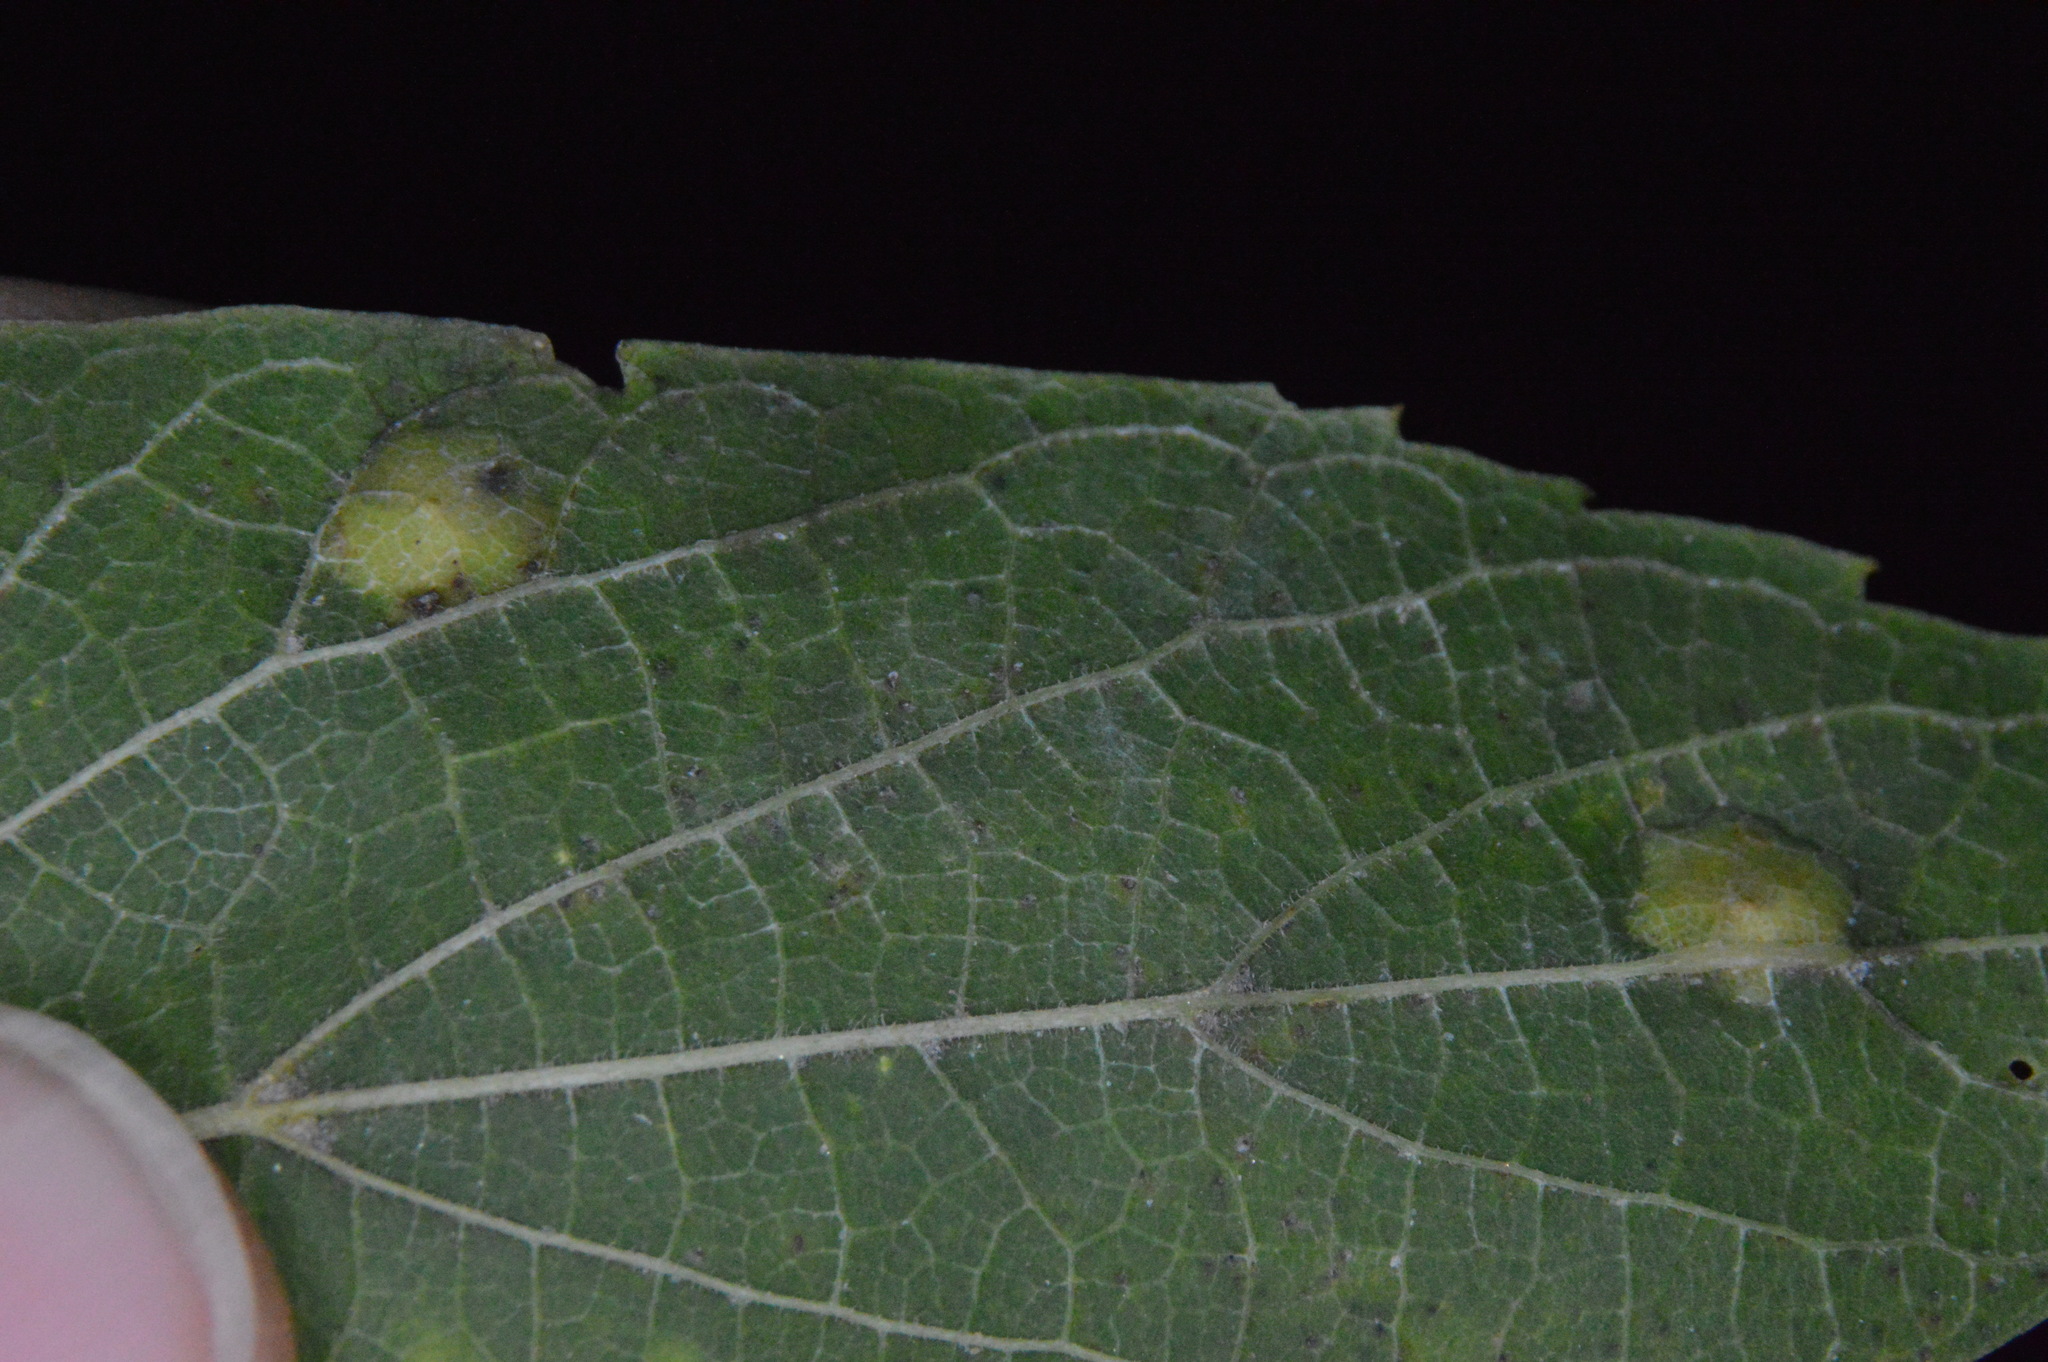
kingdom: Animalia
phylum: Arthropoda
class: Insecta
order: Hemiptera
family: Aphalaridae
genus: Pachypsylla
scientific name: Pachypsylla celtidisvesicula
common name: Hackberry blister gall psyllid
